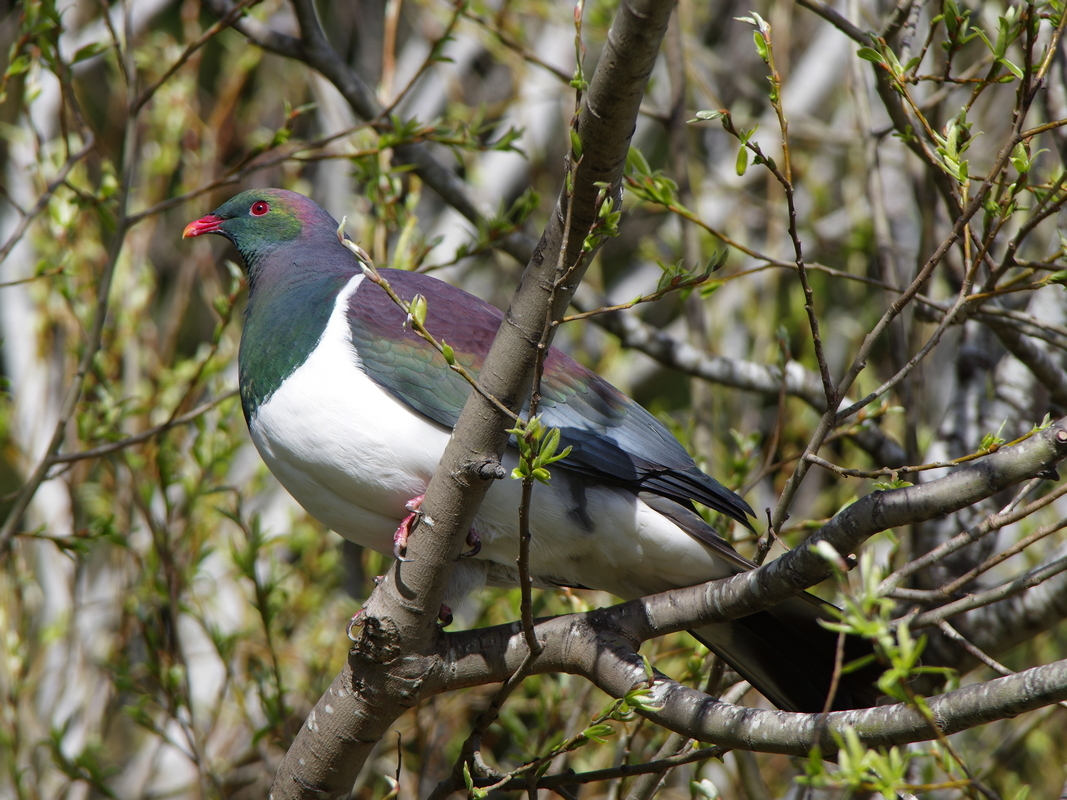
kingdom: Animalia
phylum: Chordata
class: Aves
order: Columbiformes
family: Columbidae
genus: Hemiphaga
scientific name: Hemiphaga novaeseelandiae
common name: New zealand pigeon
